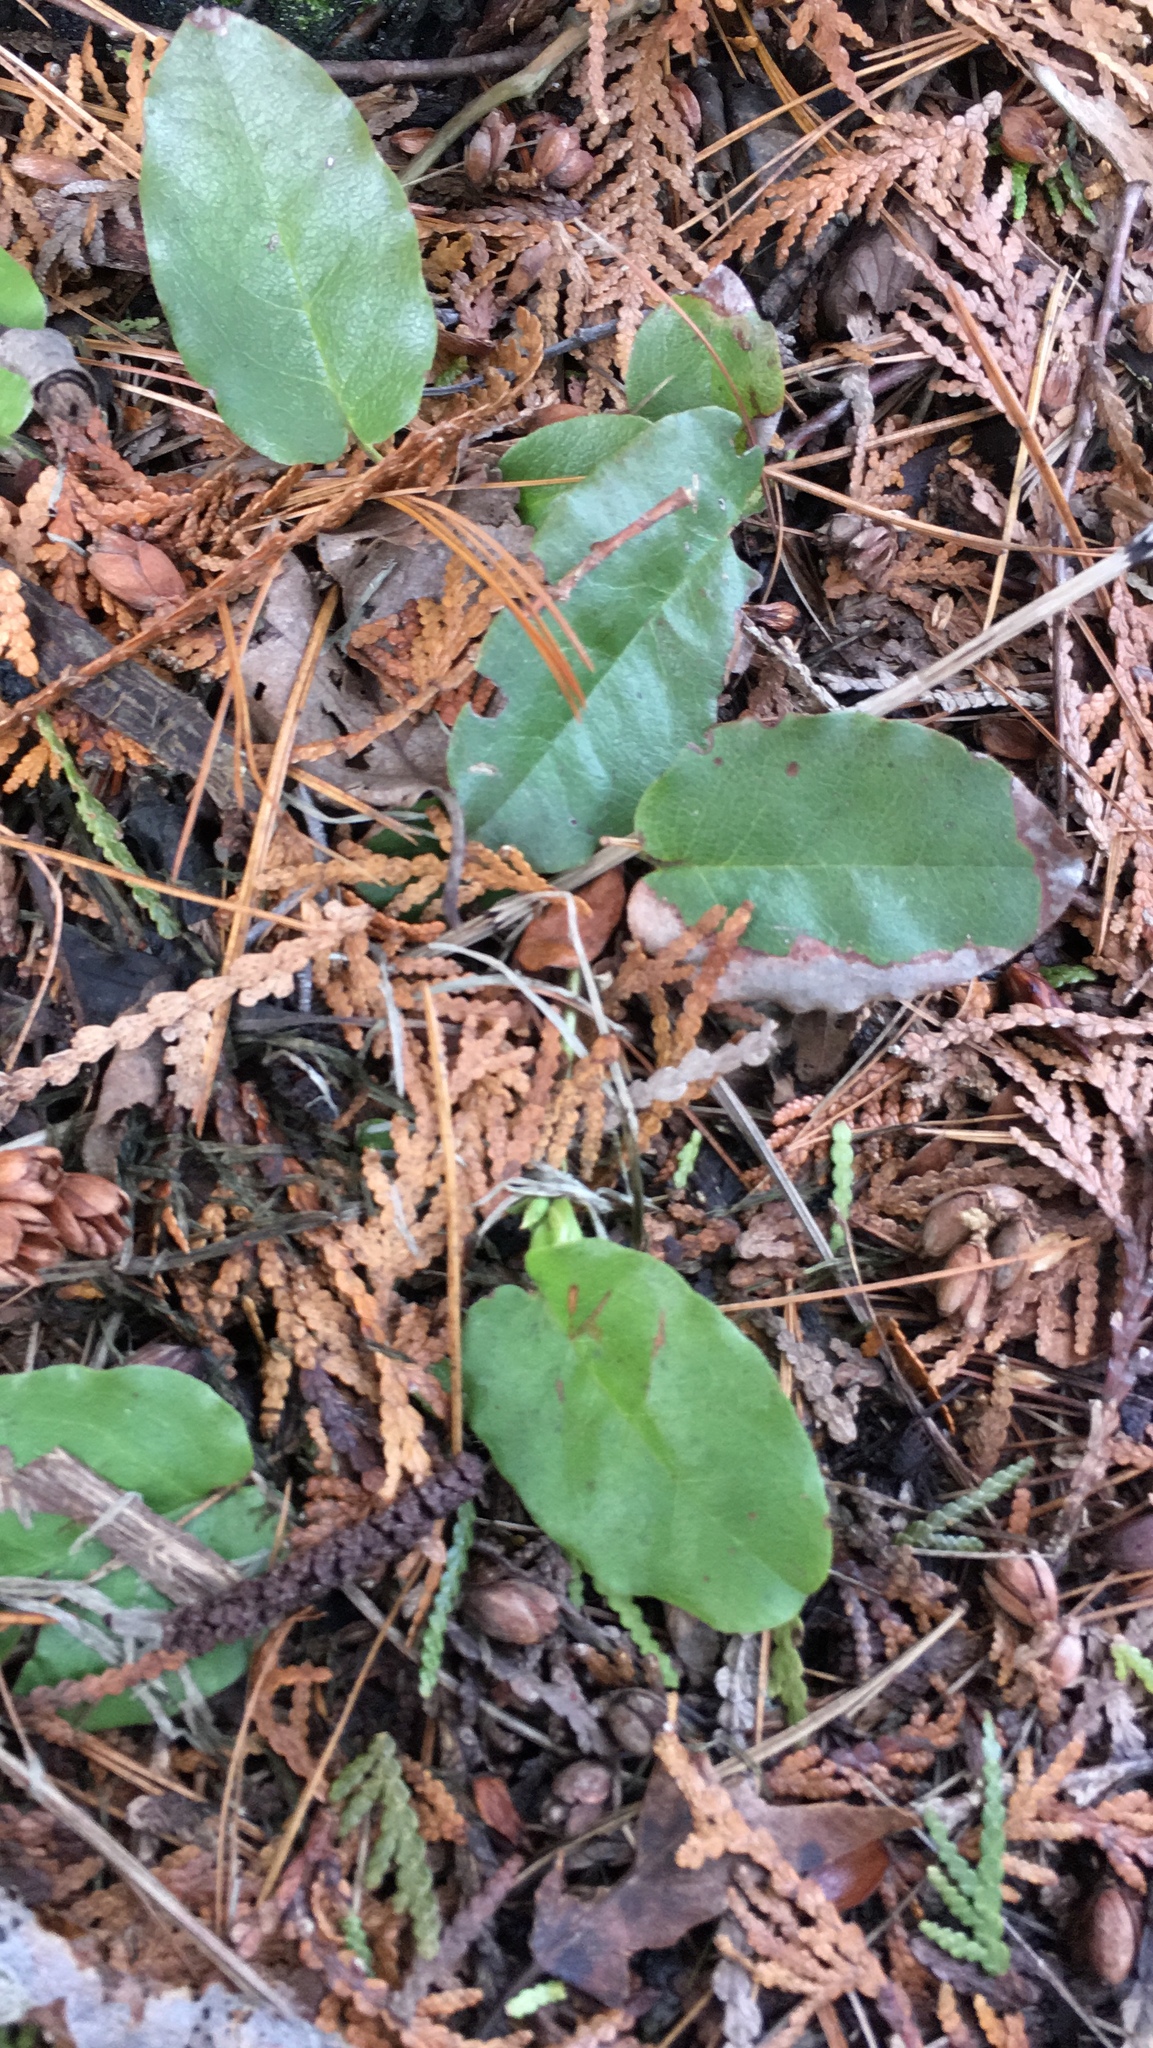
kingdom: Plantae
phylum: Tracheophyta
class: Magnoliopsida
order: Ericales
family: Ericaceae
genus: Epigaea
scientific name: Epigaea repens
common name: Gravelroot
